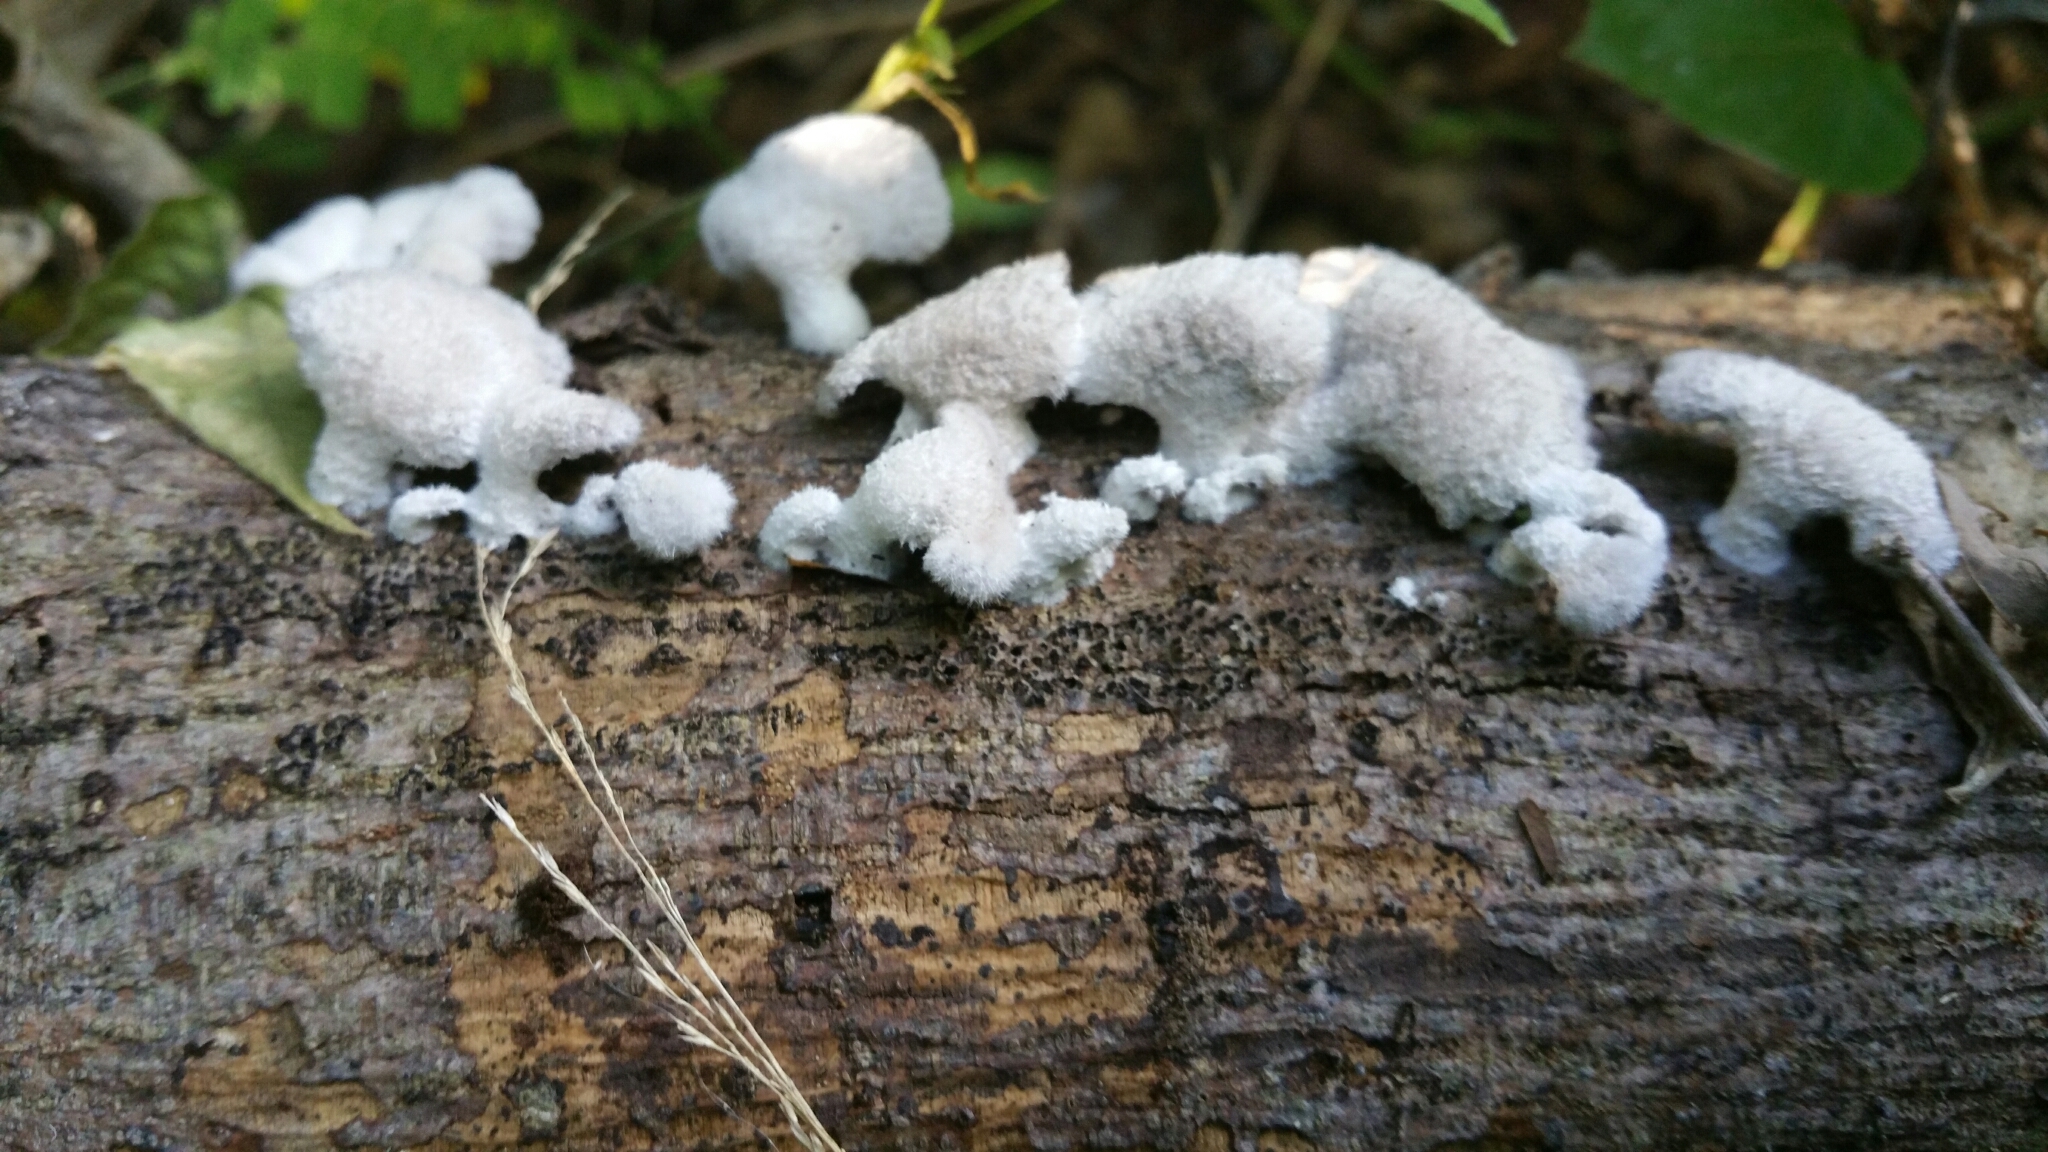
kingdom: Fungi
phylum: Basidiomycota
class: Agaricomycetes
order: Agaricales
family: Schizophyllaceae
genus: Schizophyllum
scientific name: Schizophyllum commune
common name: Common porecrust
